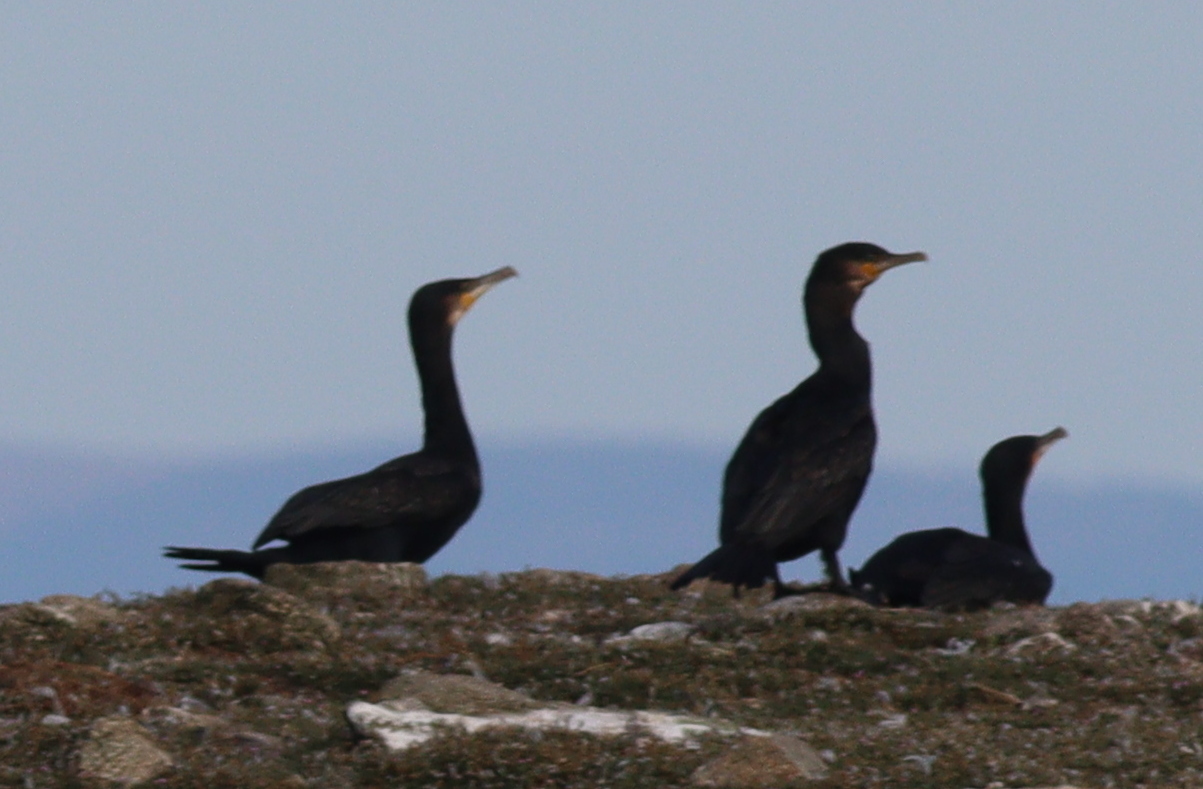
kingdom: Animalia
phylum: Chordata
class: Aves
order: Suliformes
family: Phalacrocoracidae
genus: Phalacrocorax
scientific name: Phalacrocorax carbo
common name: Great cormorant
